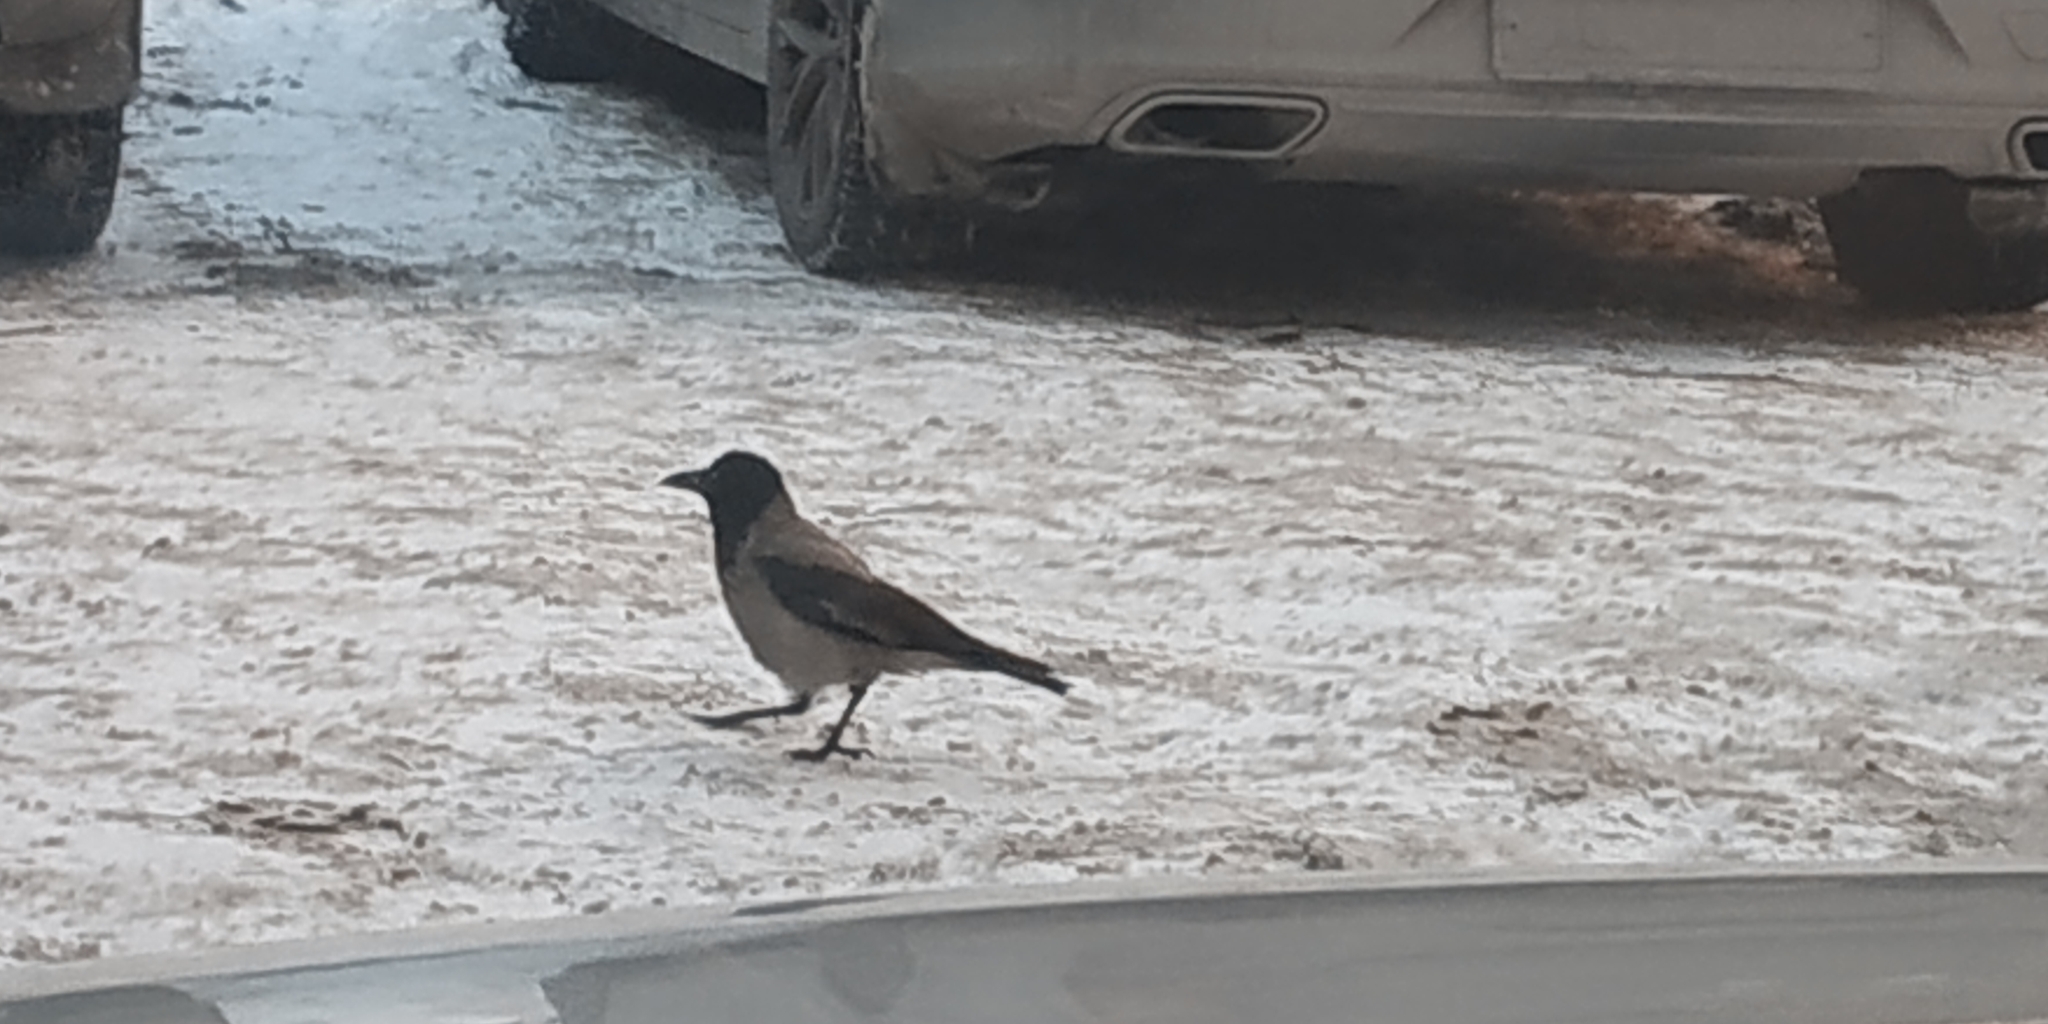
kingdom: Animalia
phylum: Chordata
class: Aves
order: Passeriformes
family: Corvidae
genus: Corvus
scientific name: Corvus cornix
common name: Hooded crow
